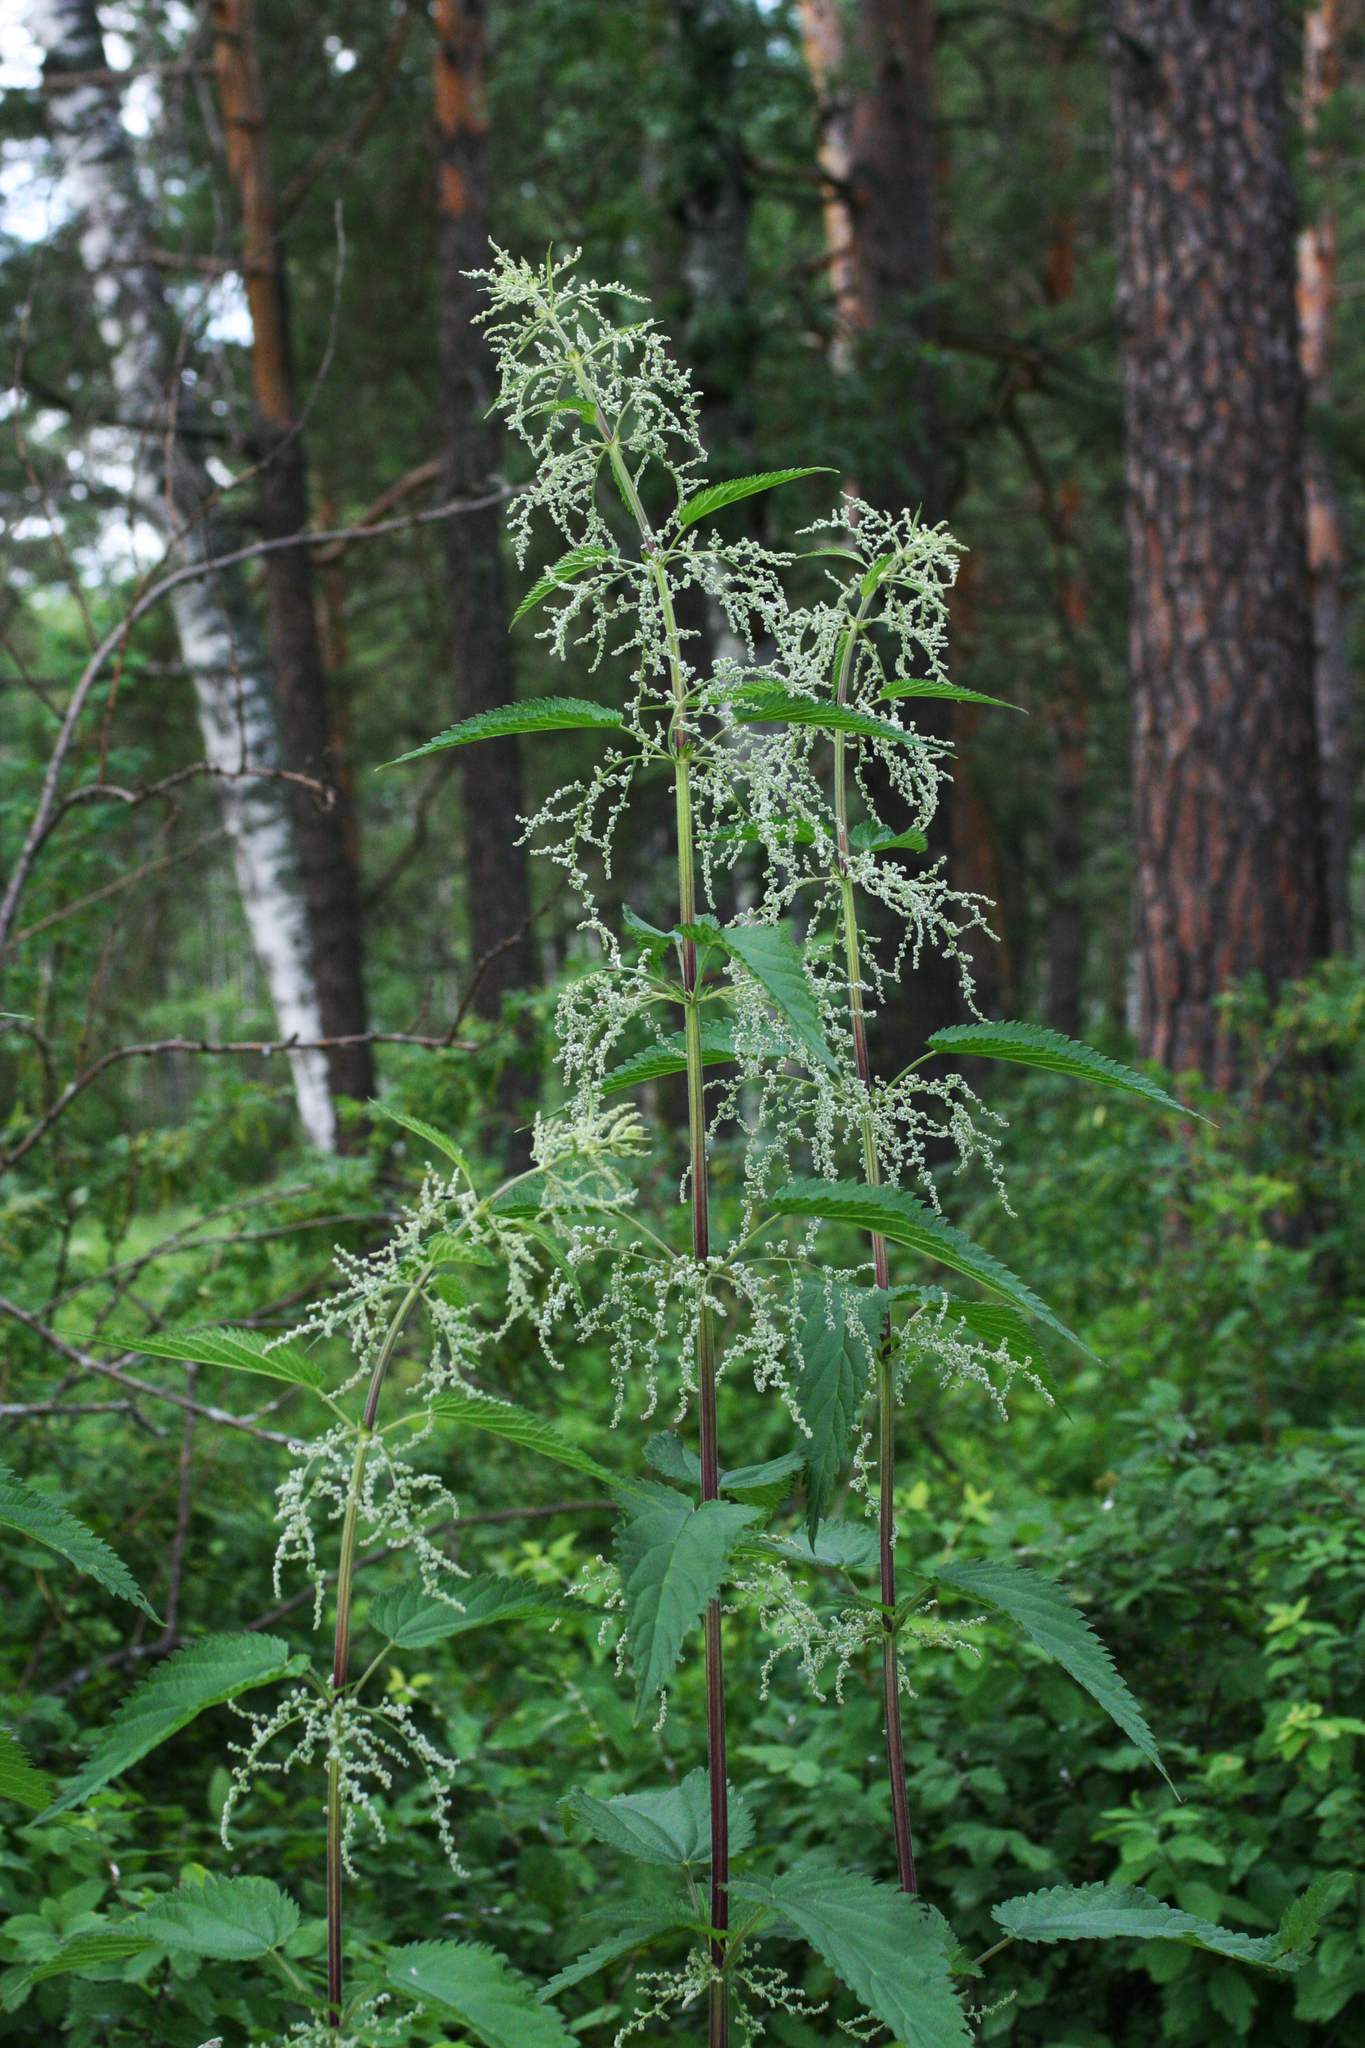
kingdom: Plantae
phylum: Tracheophyta
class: Magnoliopsida
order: Rosales
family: Urticaceae
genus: Urtica
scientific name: Urtica dioica
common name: Common nettle
